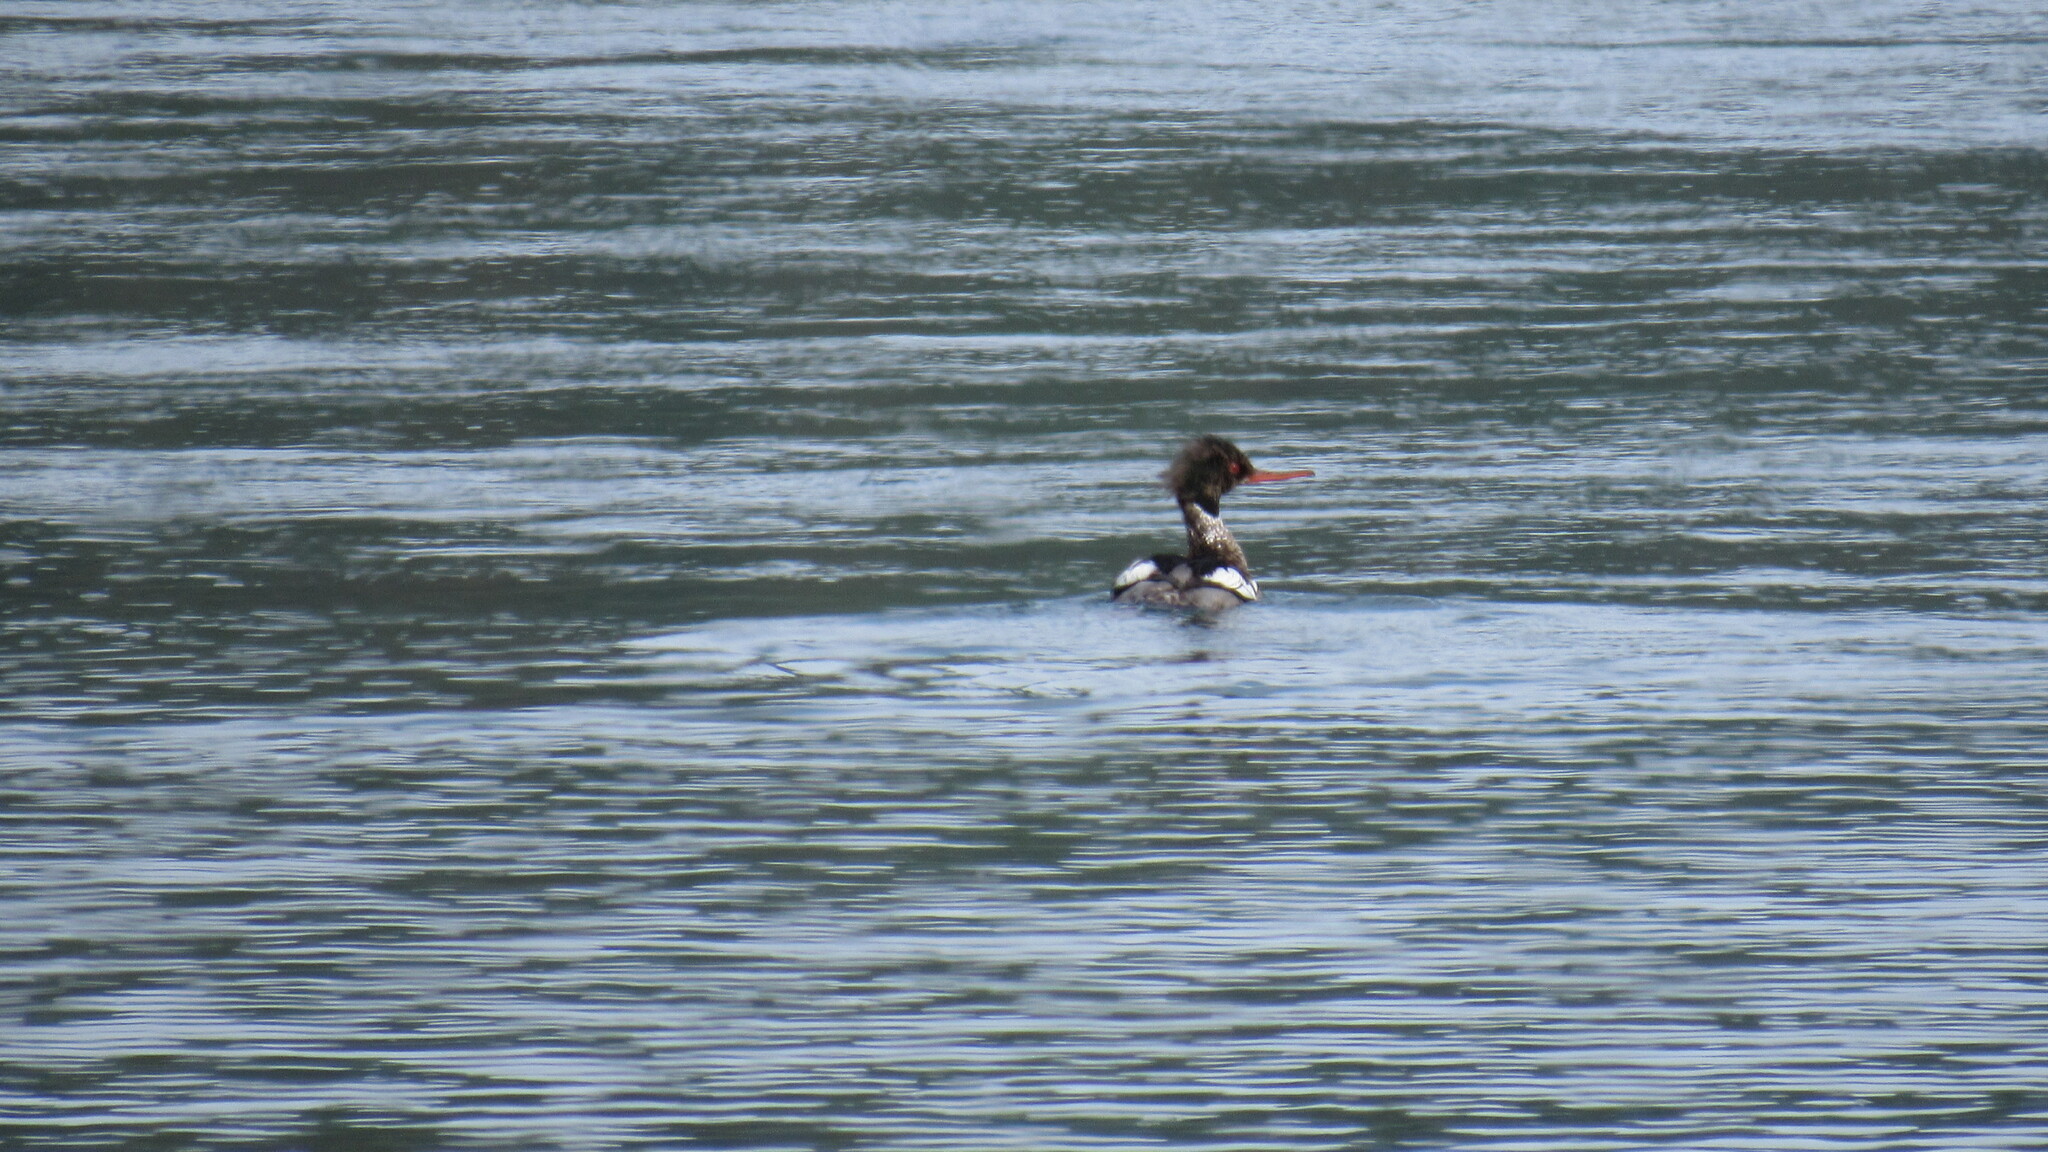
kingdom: Animalia
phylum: Chordata
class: Aves
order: Anseriformes
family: Anatidae
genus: Mergus
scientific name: Mergus serrator
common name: Red-breasted merganser
